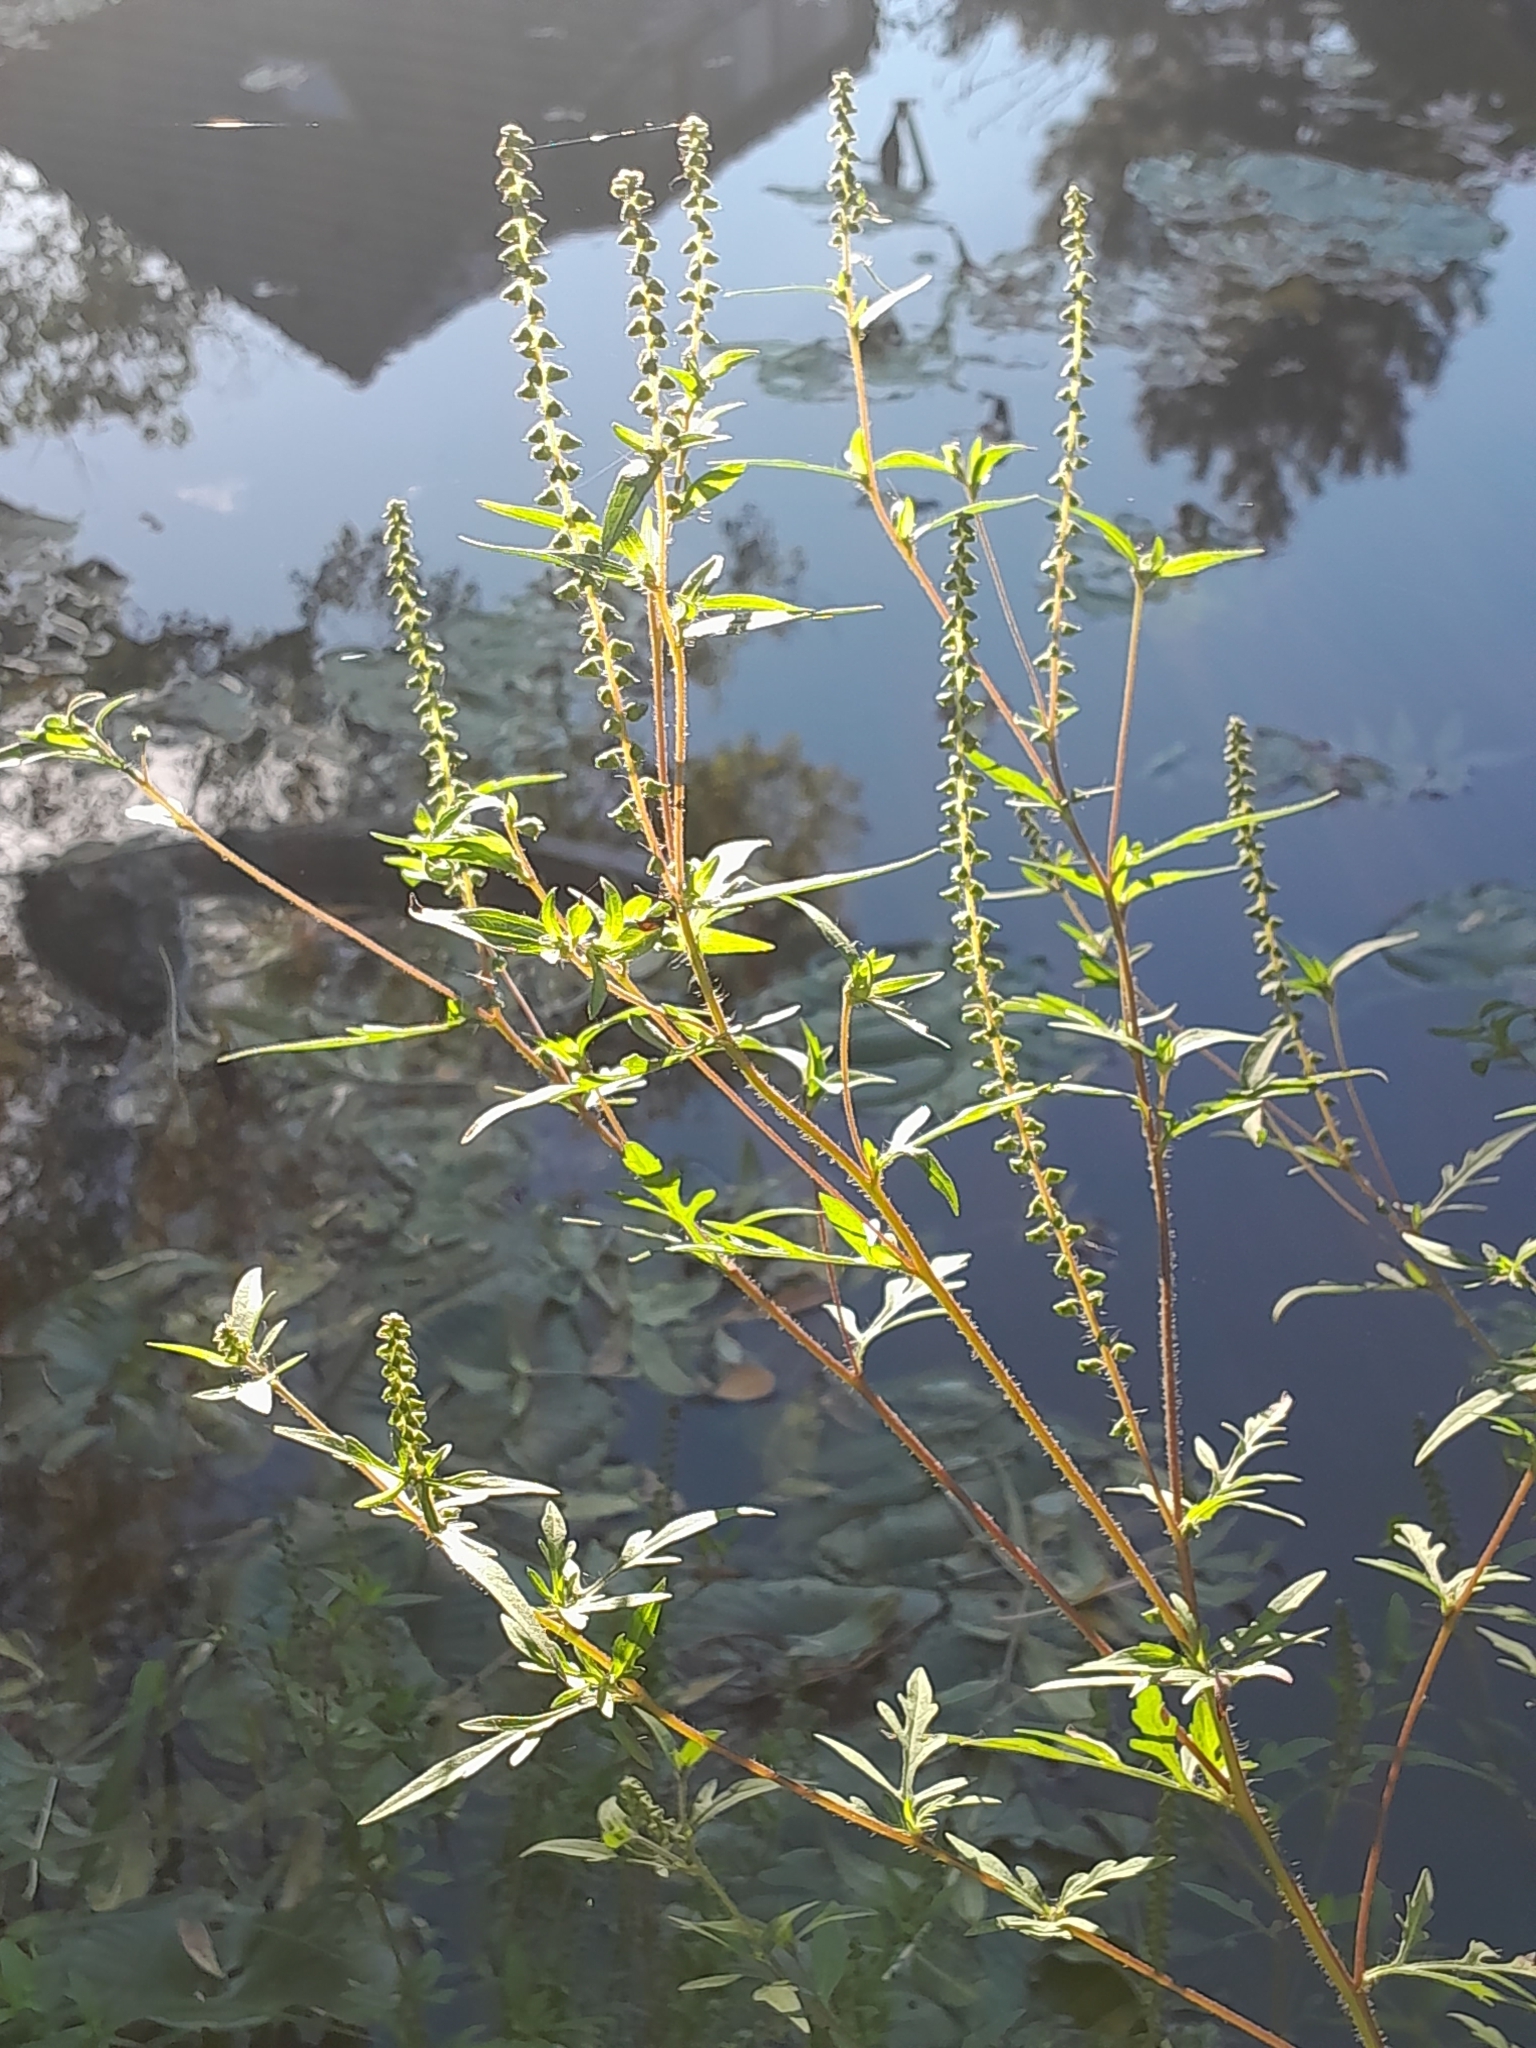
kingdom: Plantae
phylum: Tracheophyta
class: Magnoliopsida
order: Asterales
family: Asteraceae
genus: Ambrosia
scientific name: Ambrosia artemisiifolia
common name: Annual ragweed
